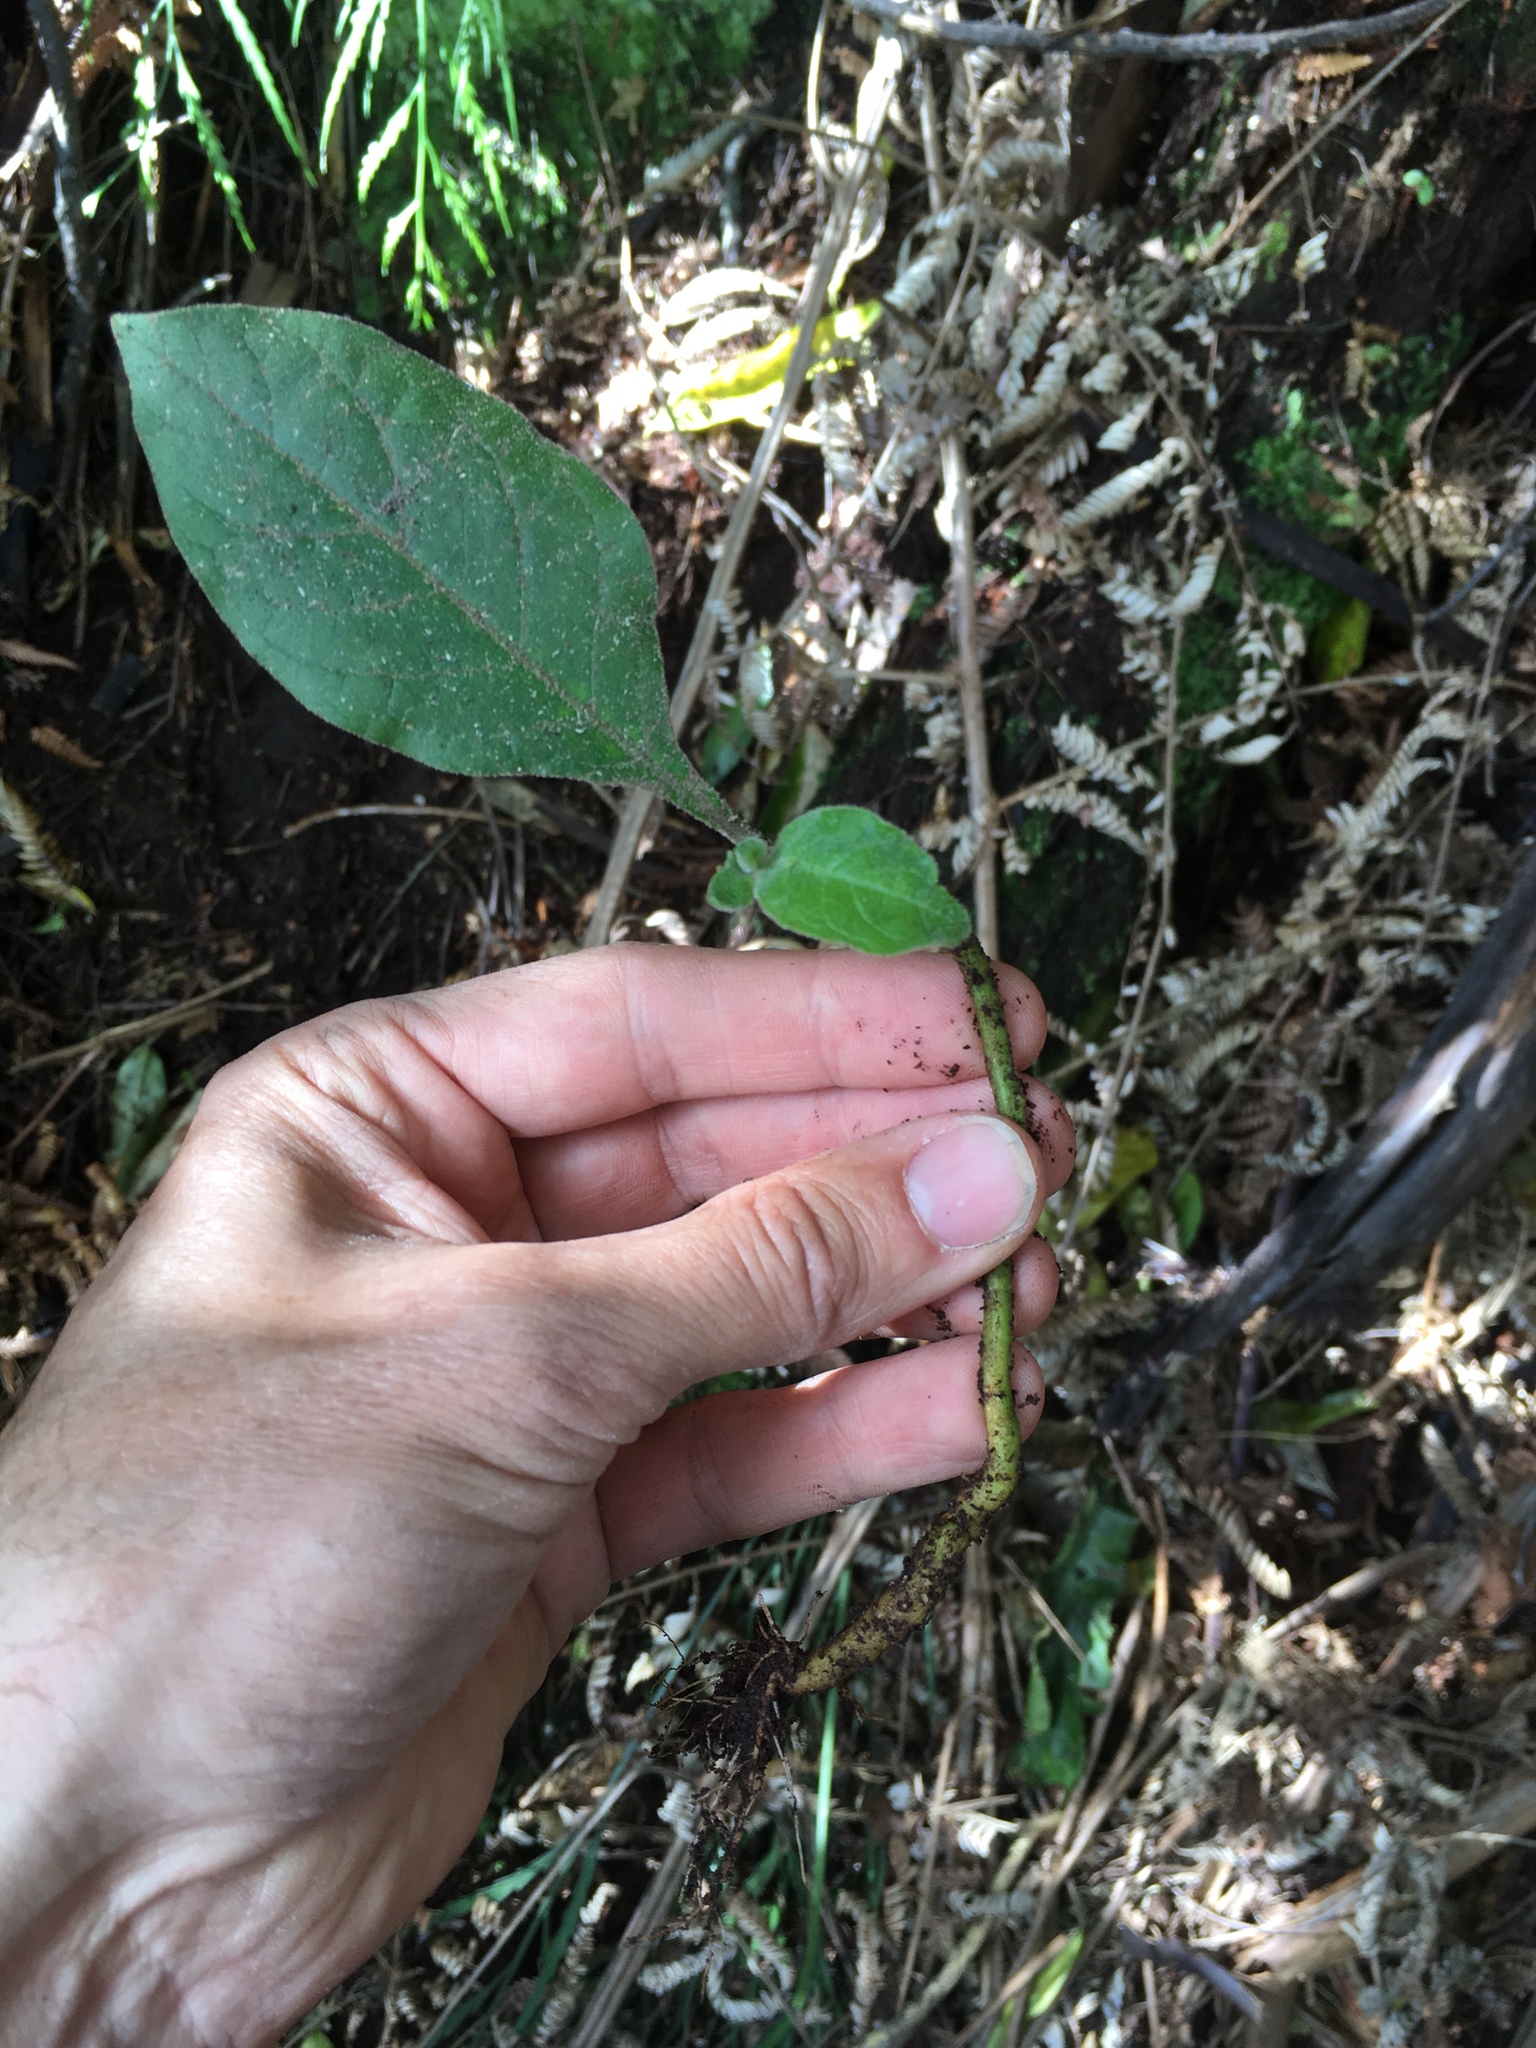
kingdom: Plantae
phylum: Tracheophyta
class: Magnoliopsida
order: Solanales
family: Solanaceae
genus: Solanum
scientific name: Solanum mauritianum
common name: Earleaf nightshade
